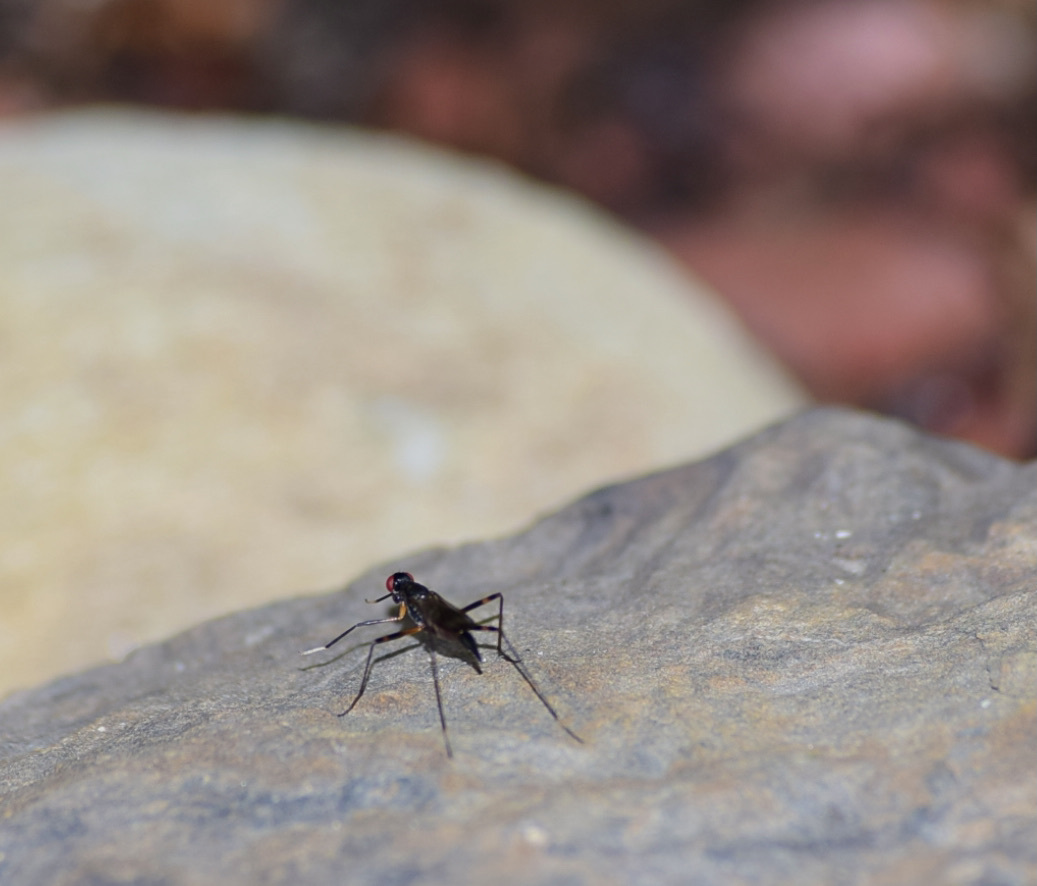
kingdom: Animalia
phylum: Arthropoda
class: Insecta
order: Diptera
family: Micropezidae
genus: Rainieria
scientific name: Rainieria antennaepes
